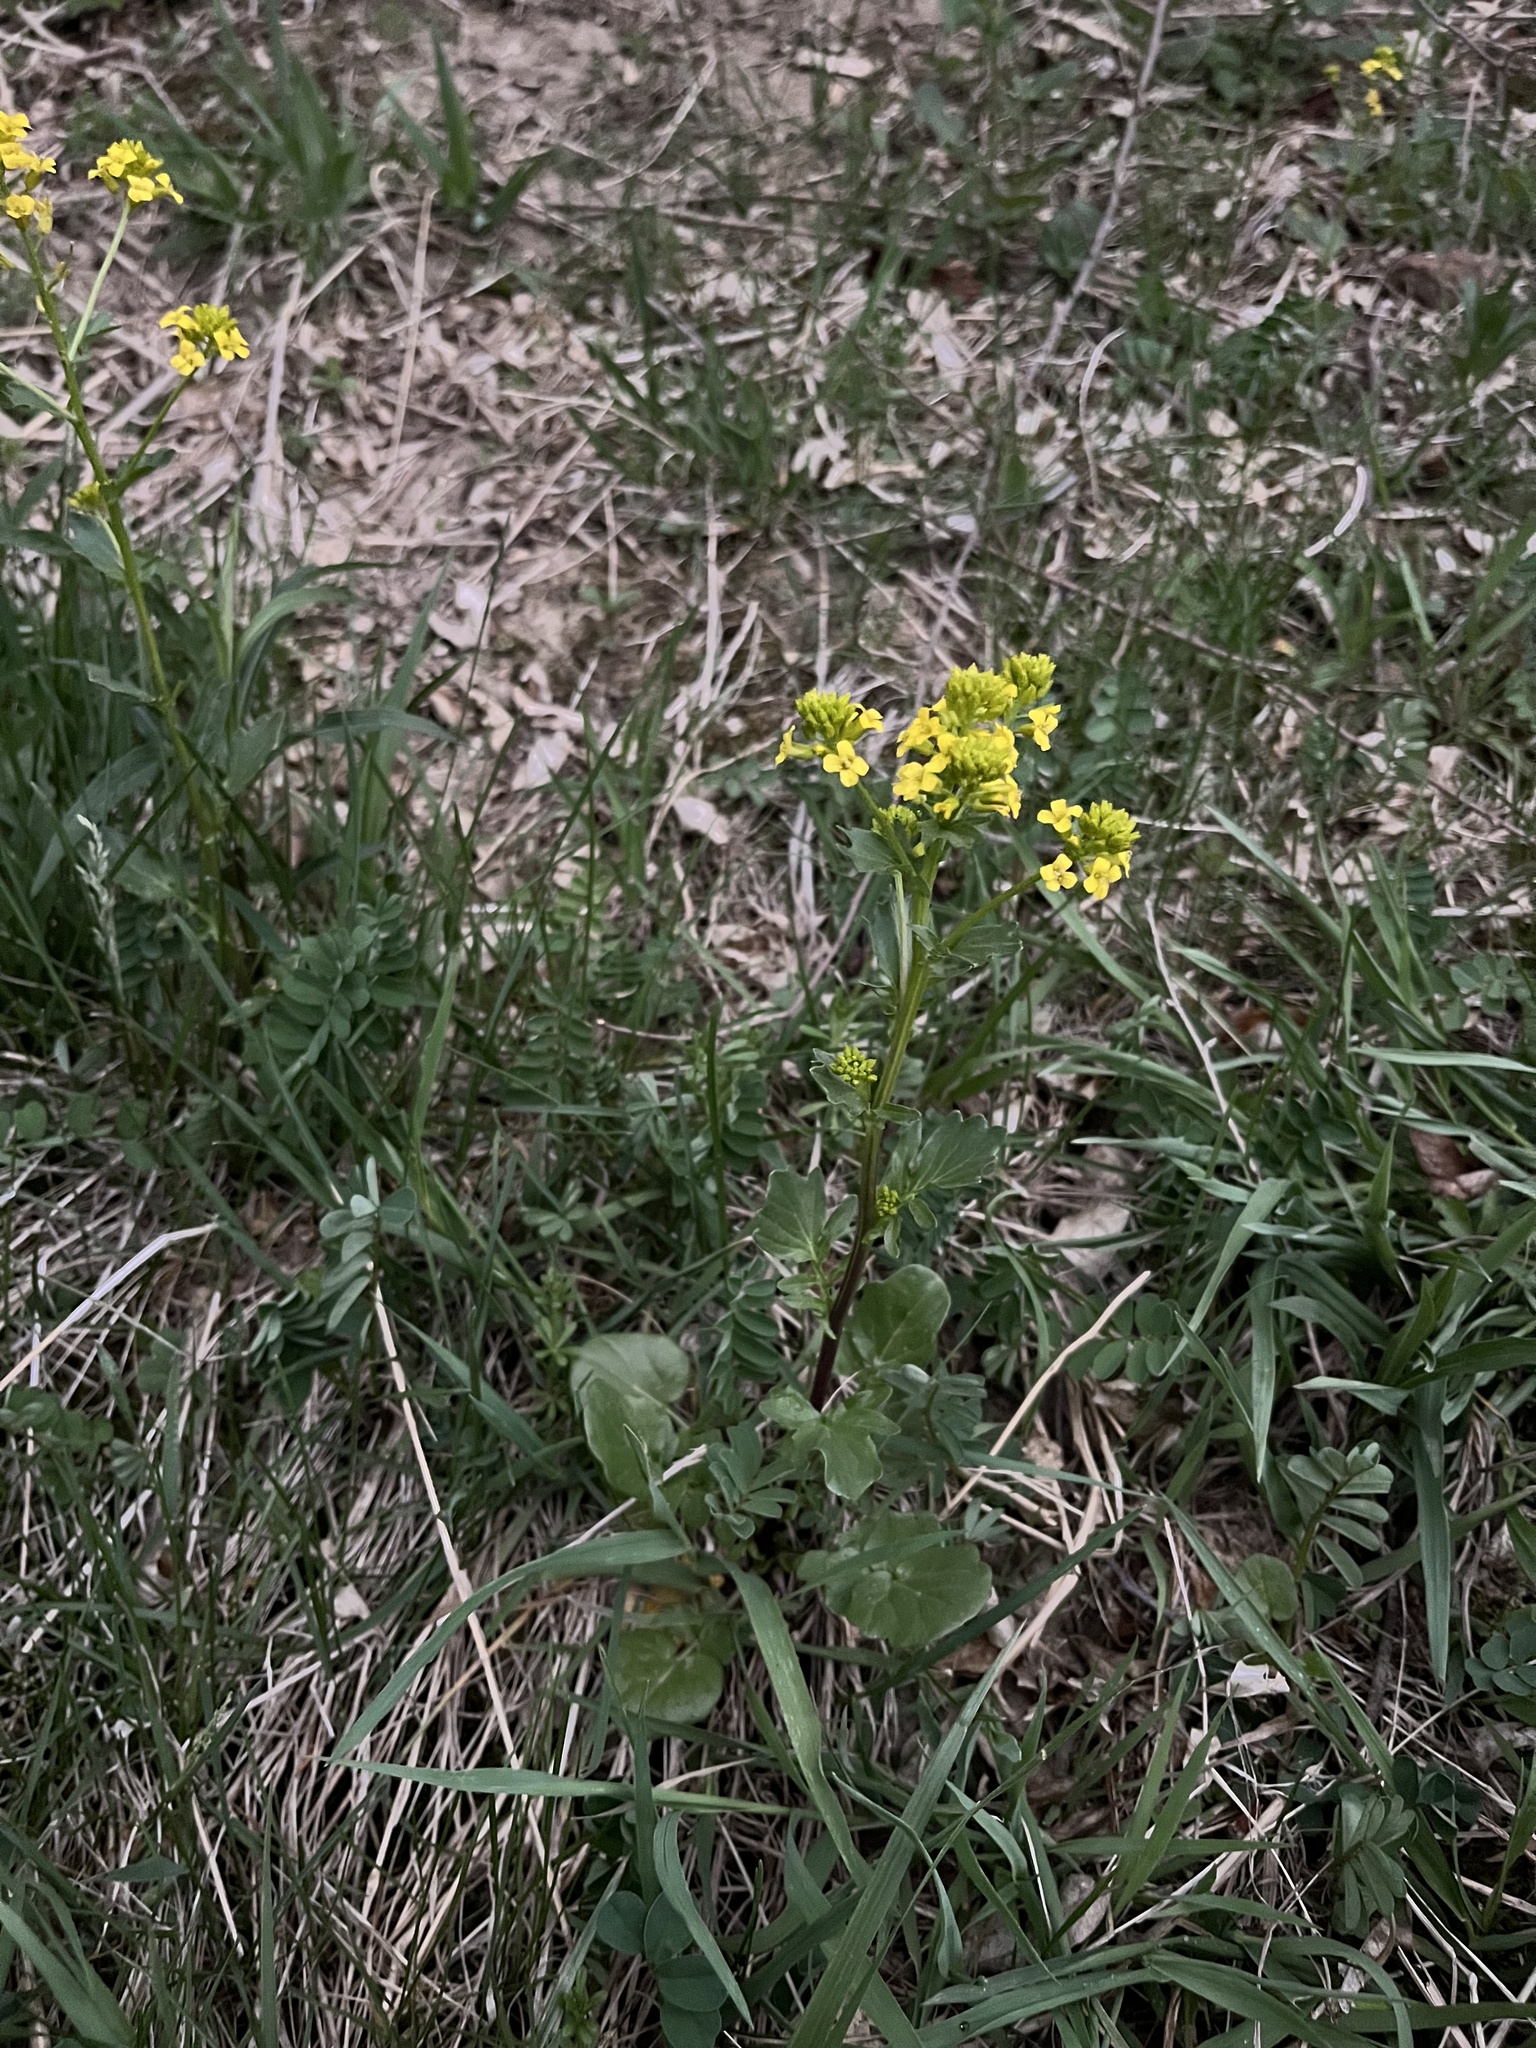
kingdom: Plantae
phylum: Tracheophyta
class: Magnoliopsida
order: Brassicales
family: Brassicaceae
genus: Barbarea
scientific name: Barbarea vulgaris
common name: Cressy-greens
